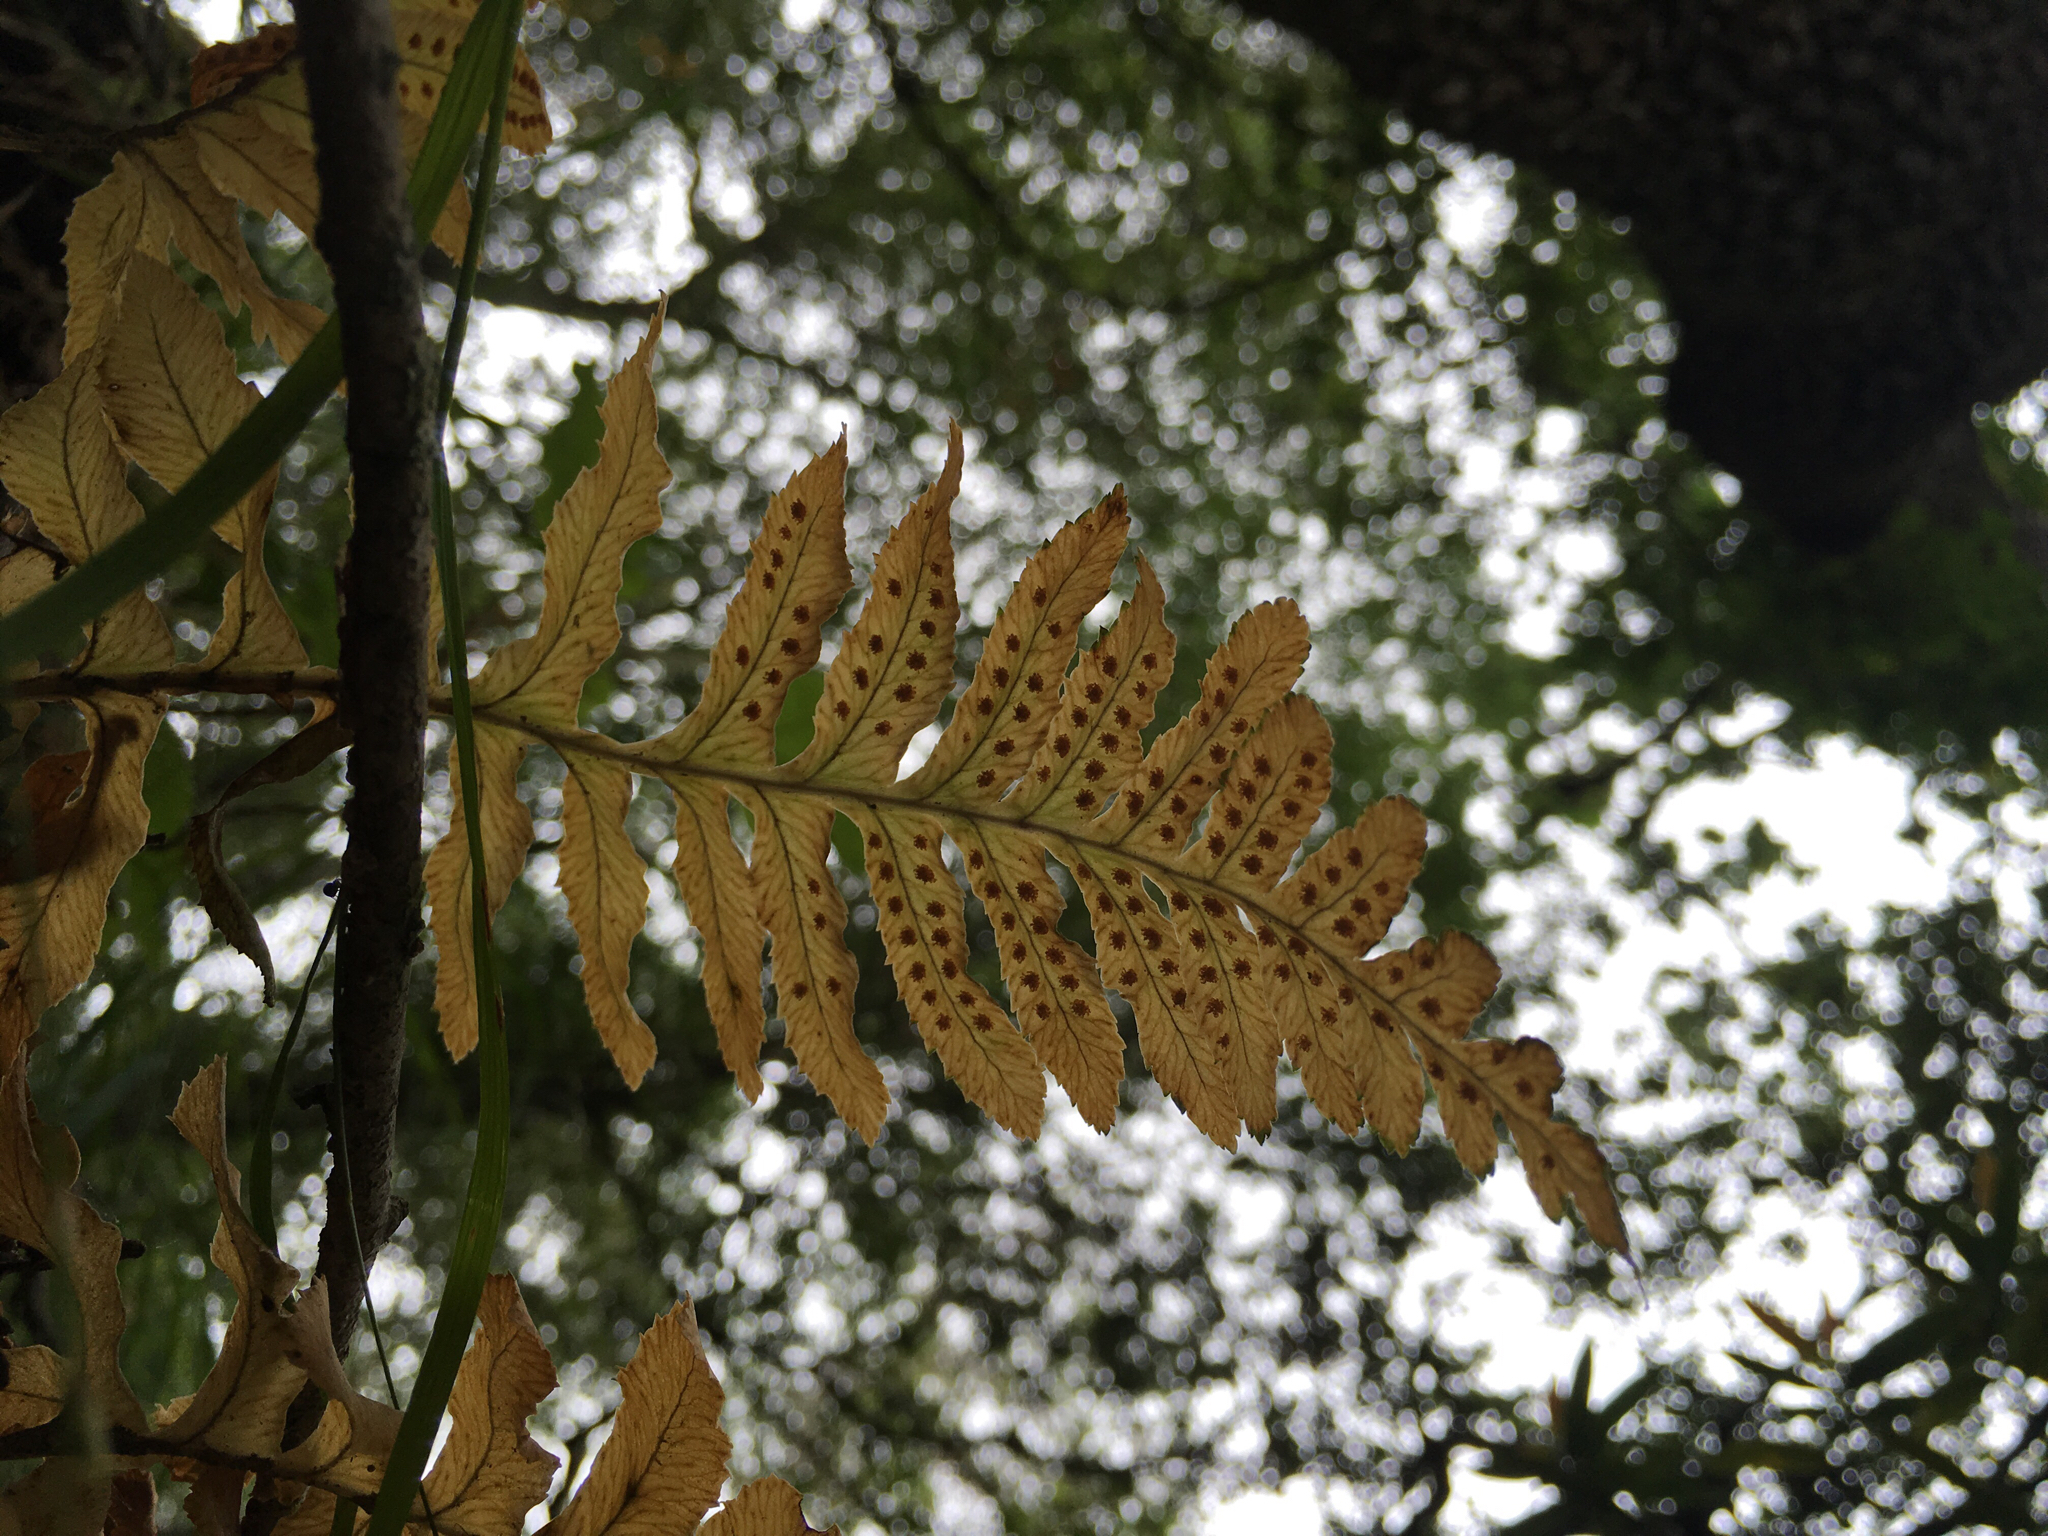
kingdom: Plantae
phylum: Tracheophyta
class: Polypodiopsida
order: Polypodiales
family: Polypodiaceae
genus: Polypodium
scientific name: Polypodium californicum
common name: California polypody
